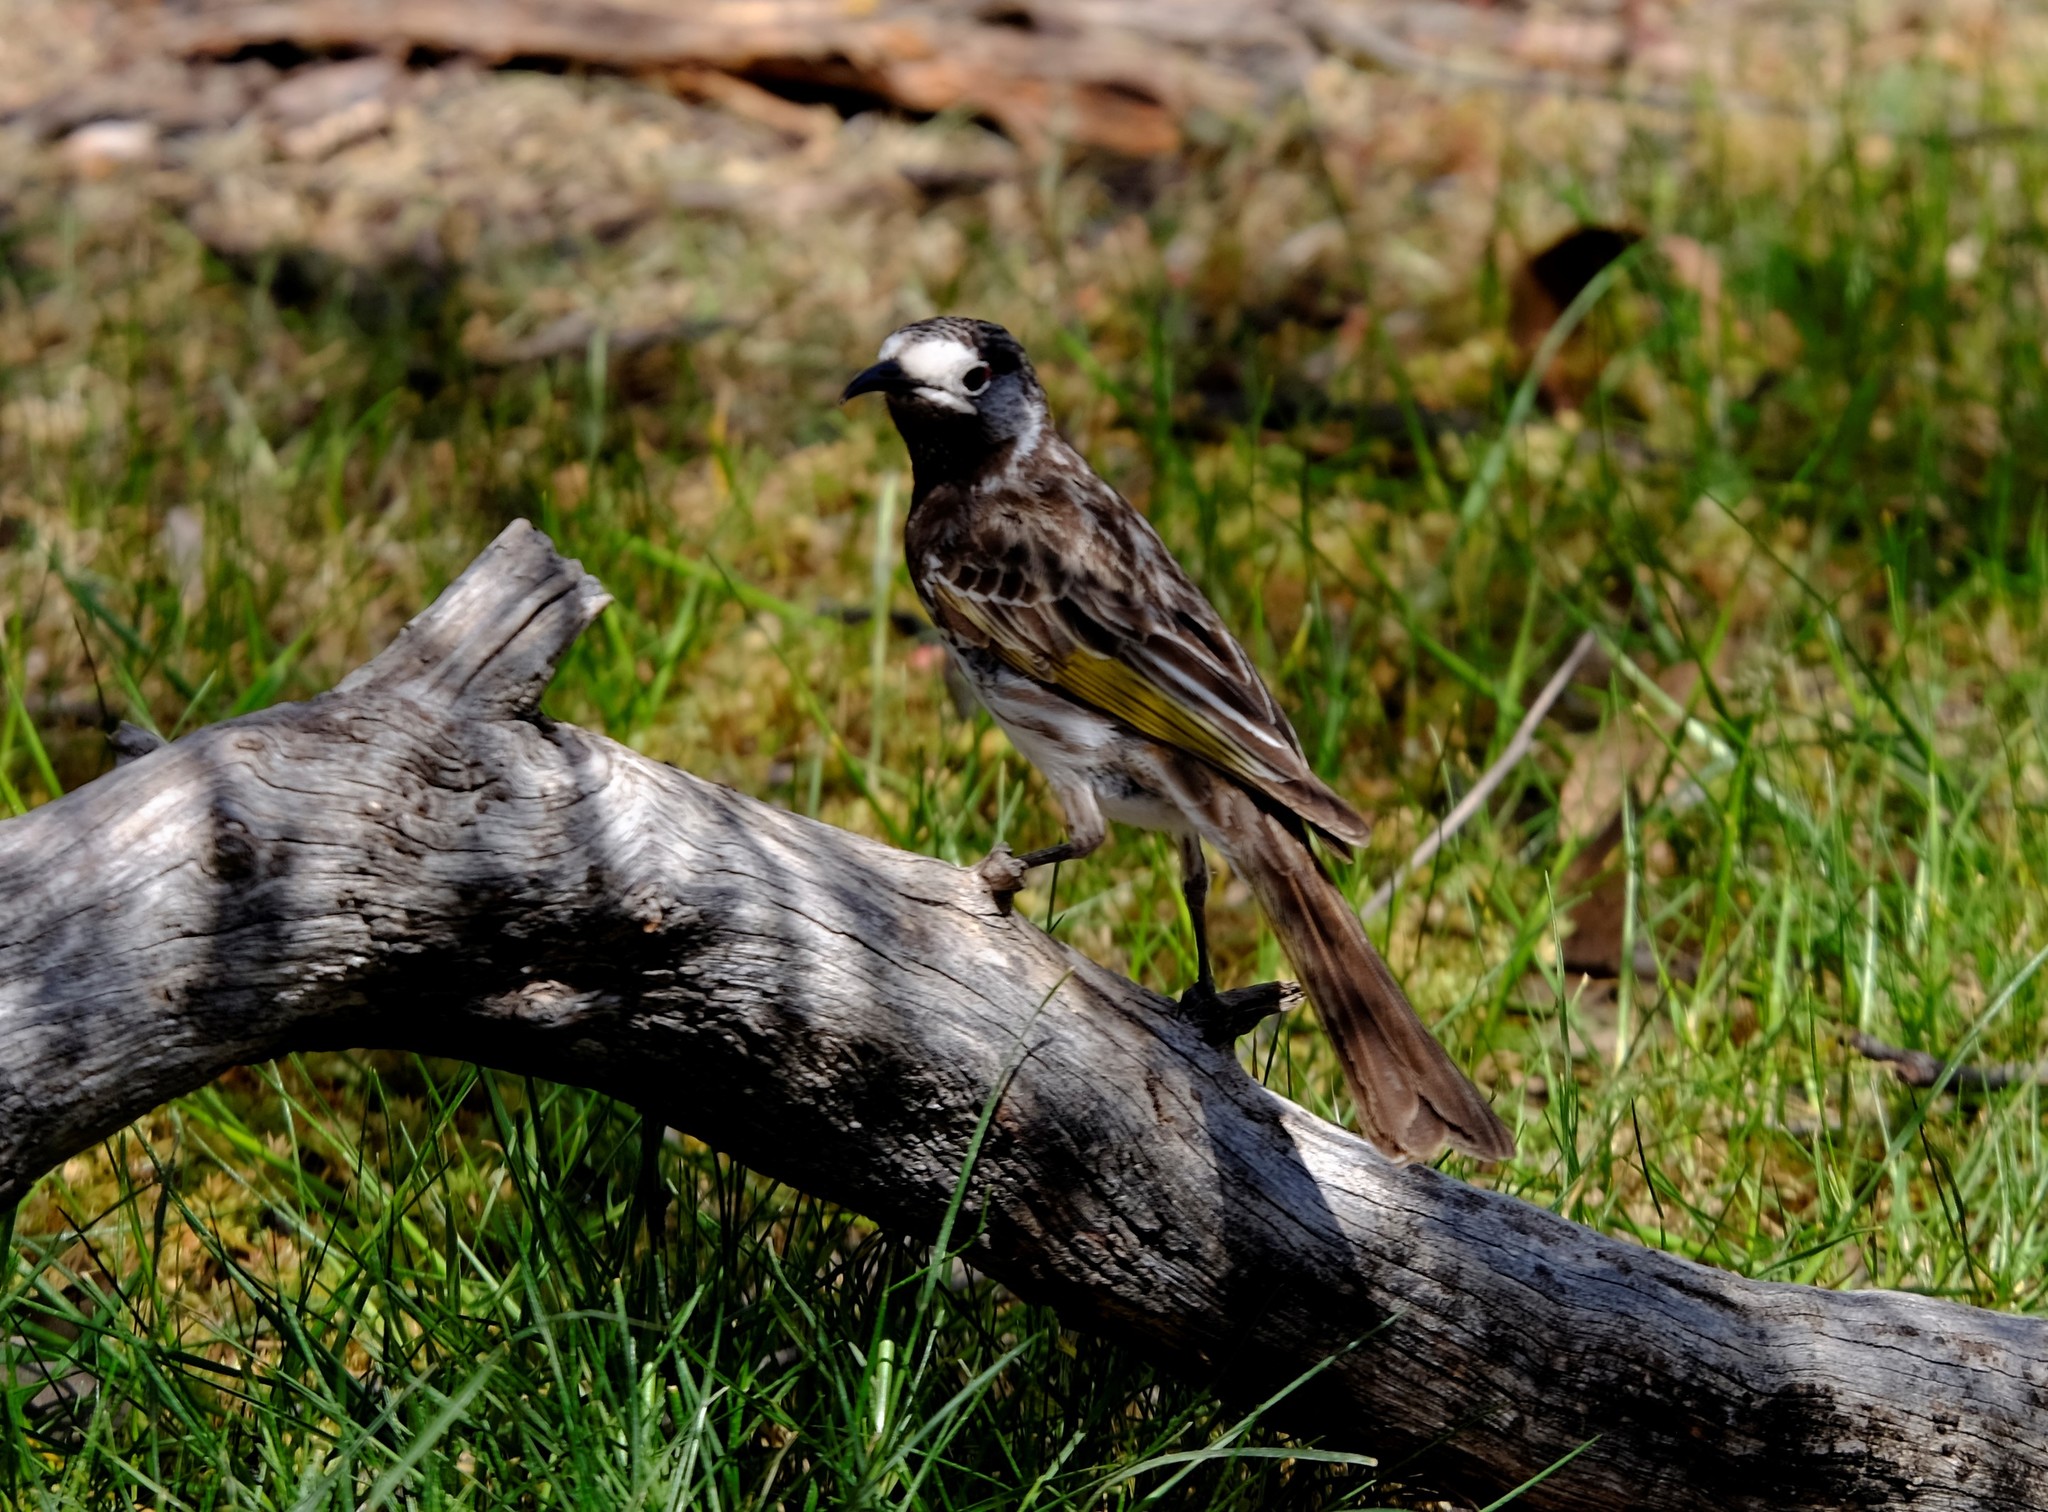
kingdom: Animalia
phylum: Chordata
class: Aves
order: Passeriformes
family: Meliphagidae
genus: Purnella
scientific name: Purnella albifrons
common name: White-fronted honeyeater
